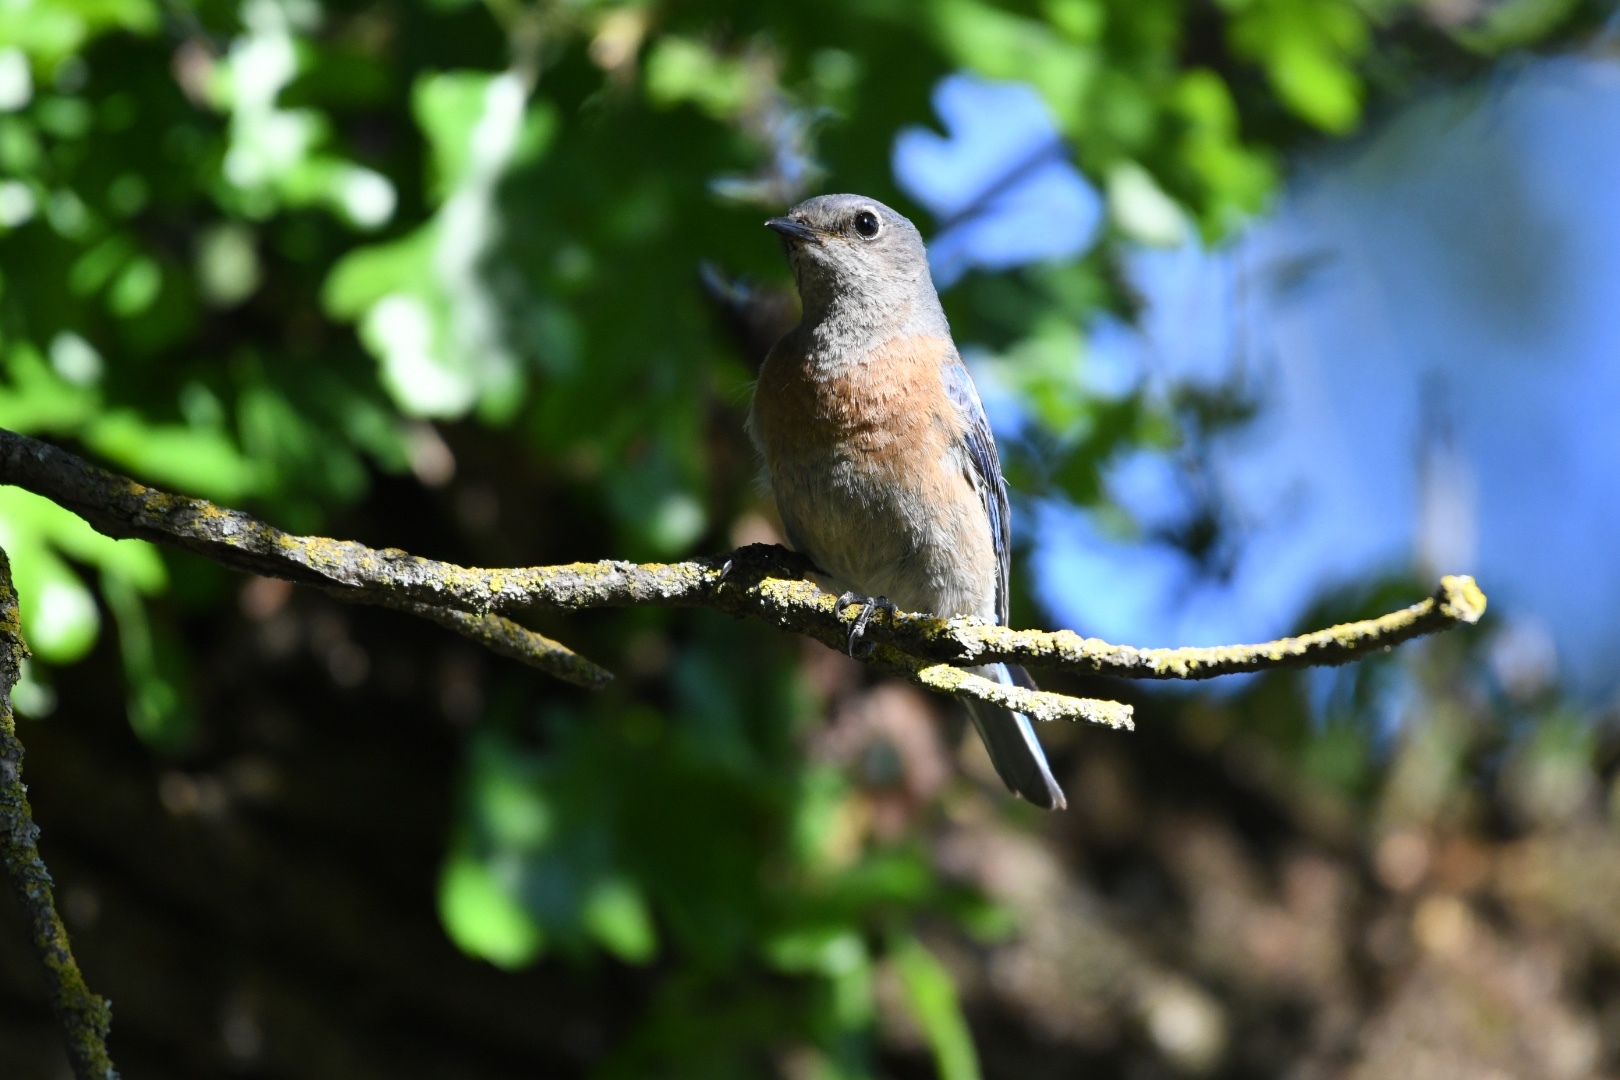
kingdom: Animalia
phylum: Chordata
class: Aves
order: Passeriformes
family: Turdidae
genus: Sialia
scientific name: Sialia mexicana
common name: Western bluebird
